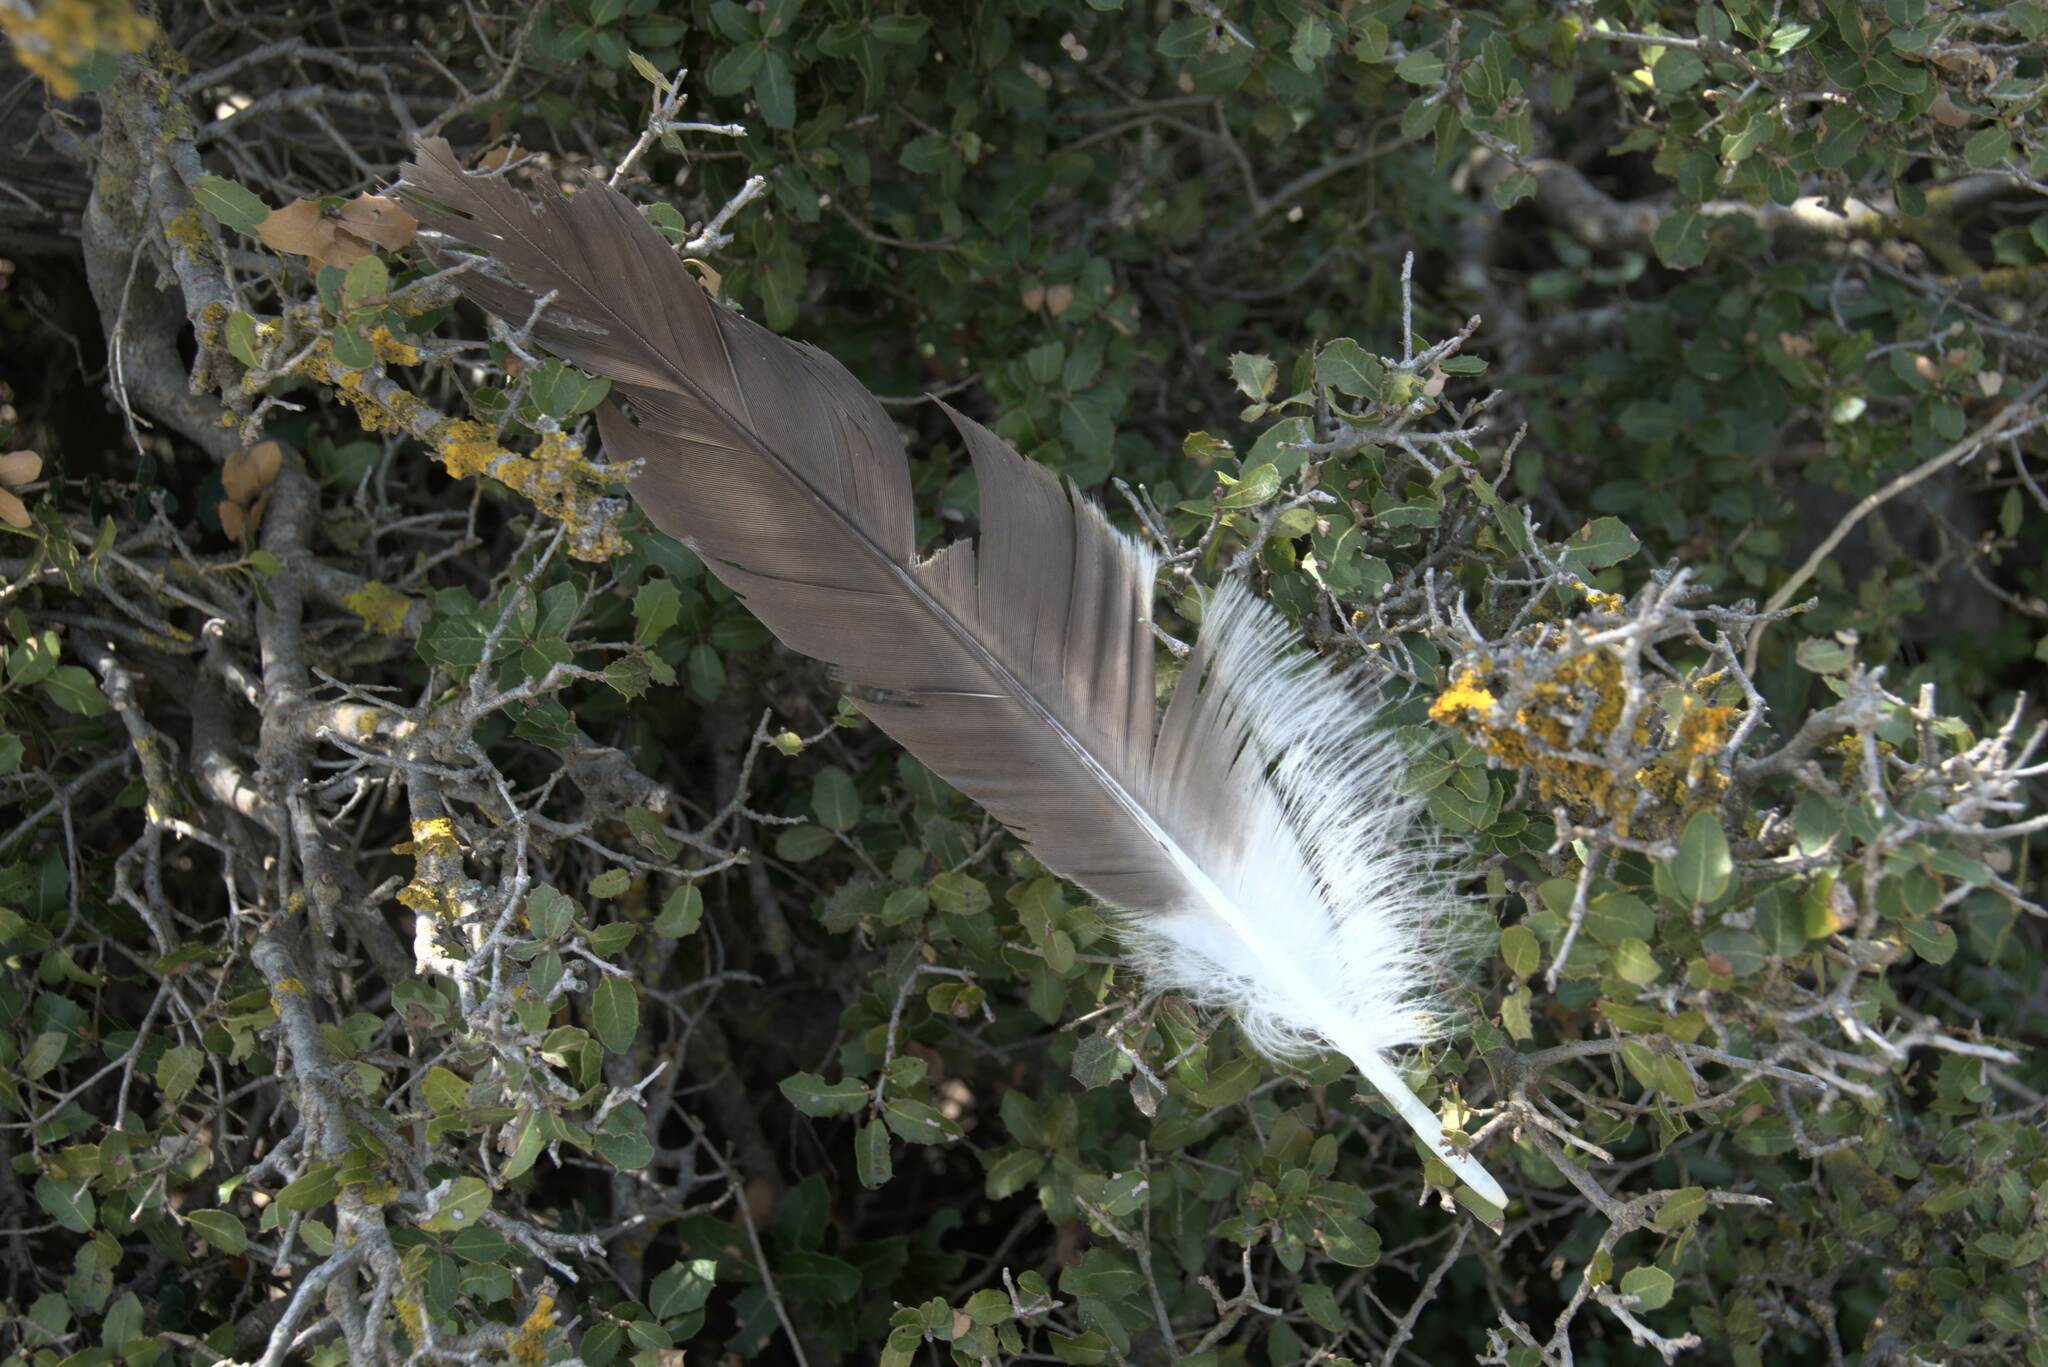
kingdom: Animalia
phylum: Chordata
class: Aves
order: Accipitriformes
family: Accipitridae
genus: Gyps
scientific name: Gyps fulvus
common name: Griffon vulture
